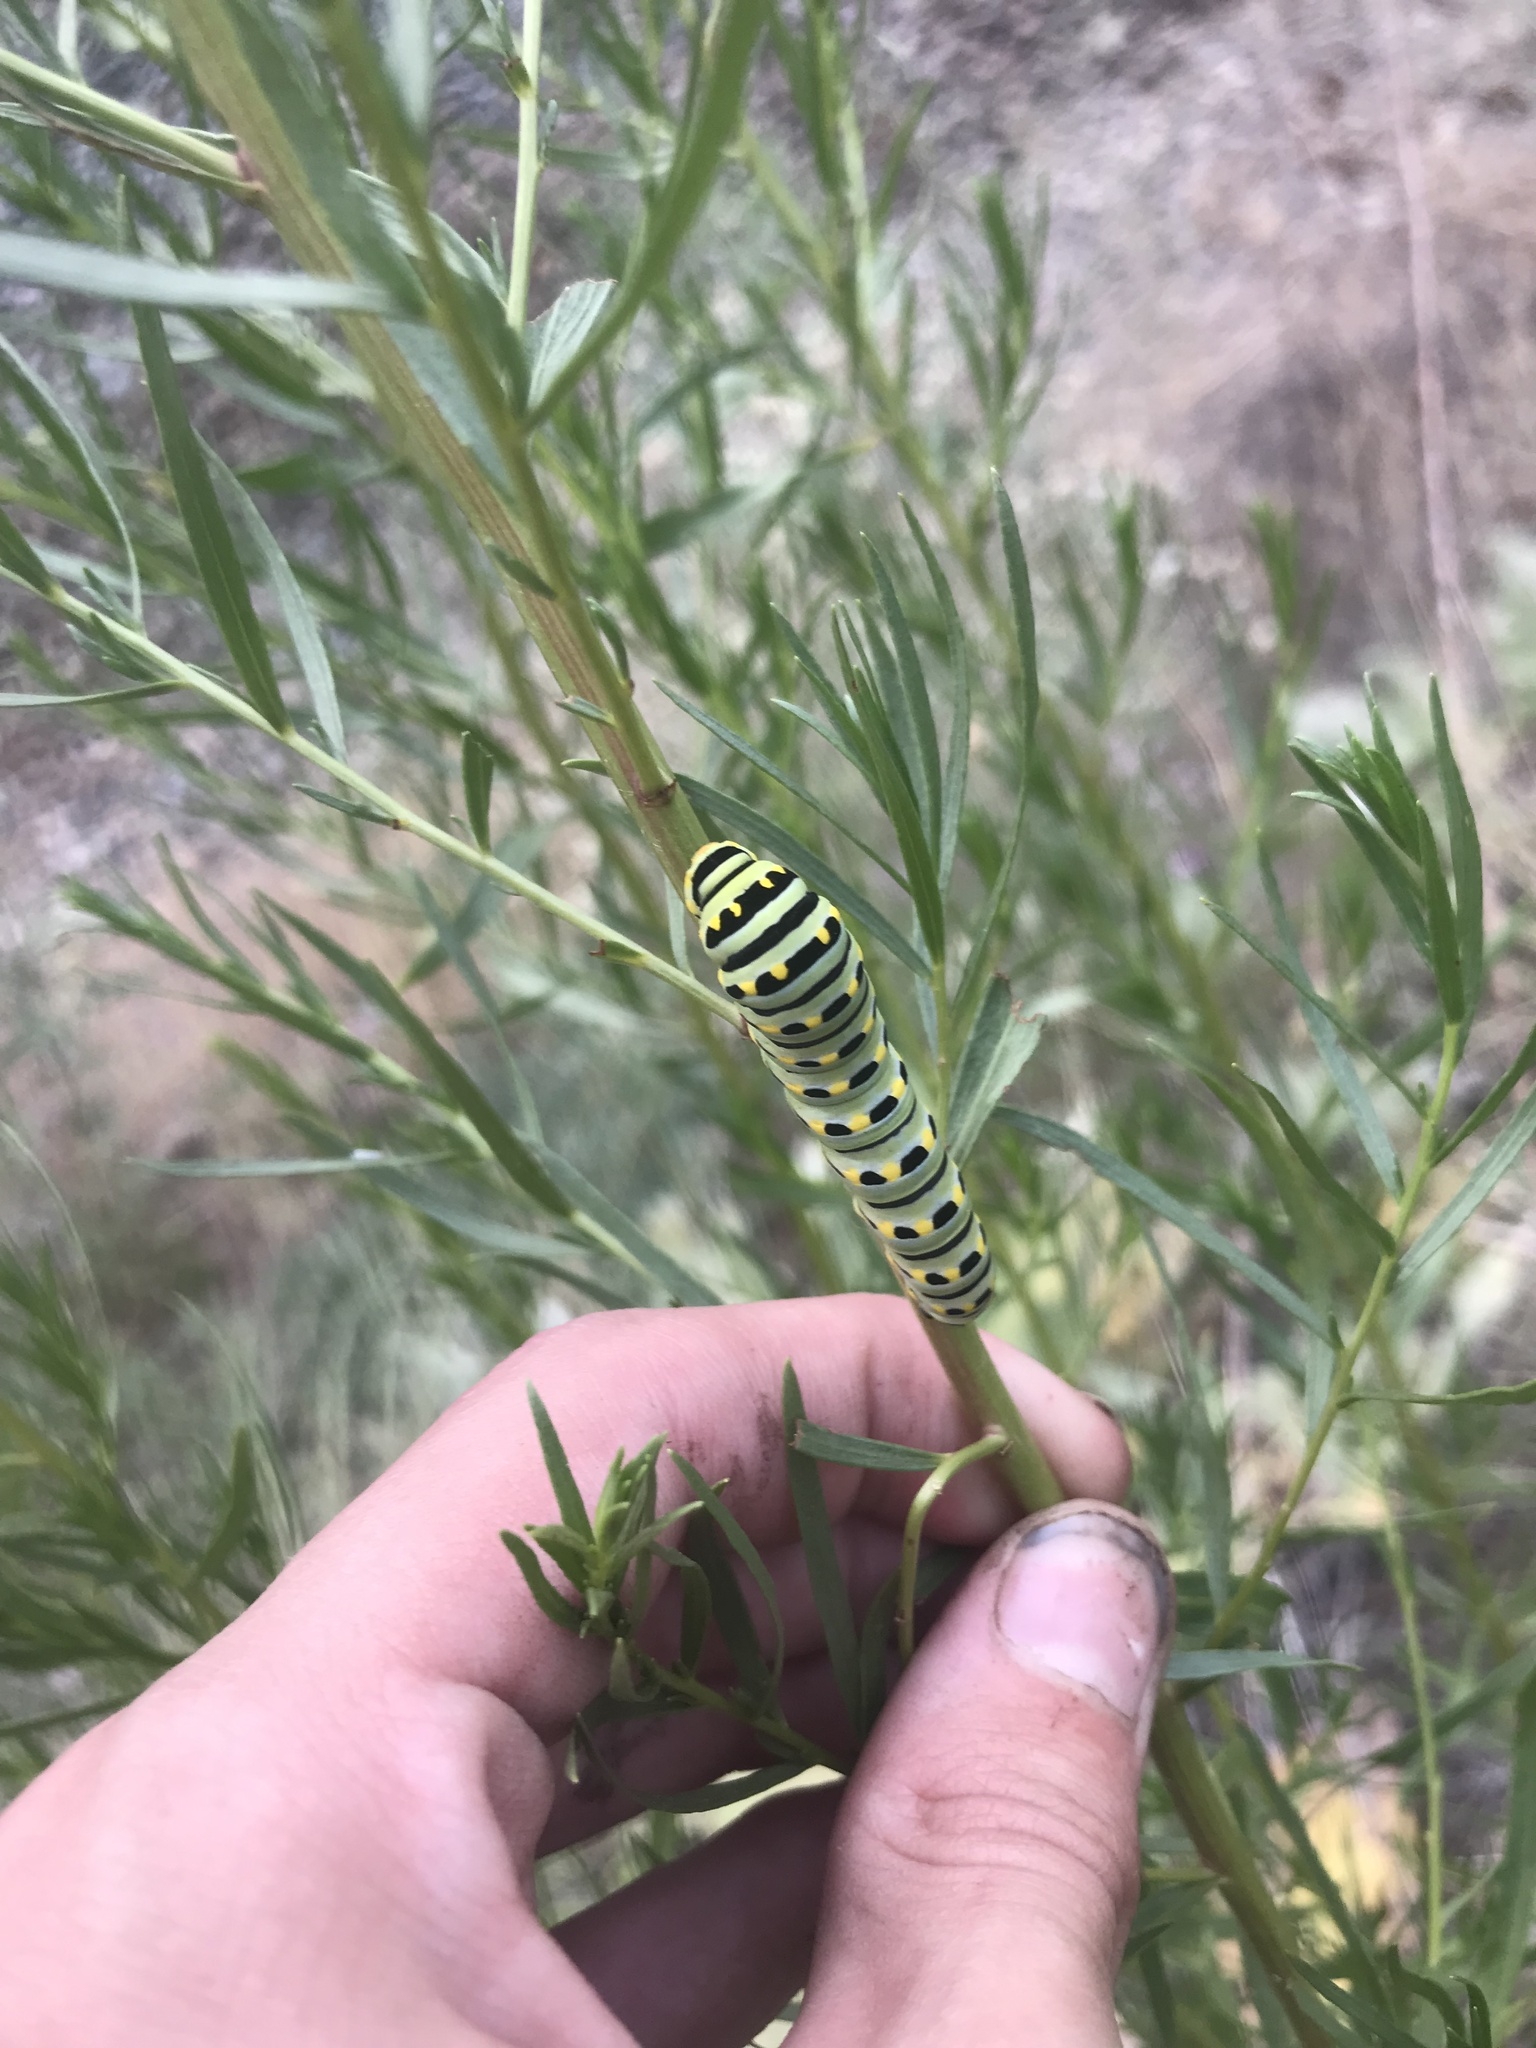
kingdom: Animalia
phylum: Arthropoda
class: Insecta
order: Lepidoptera
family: Papilionidae
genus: Papilio
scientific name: Papilio
